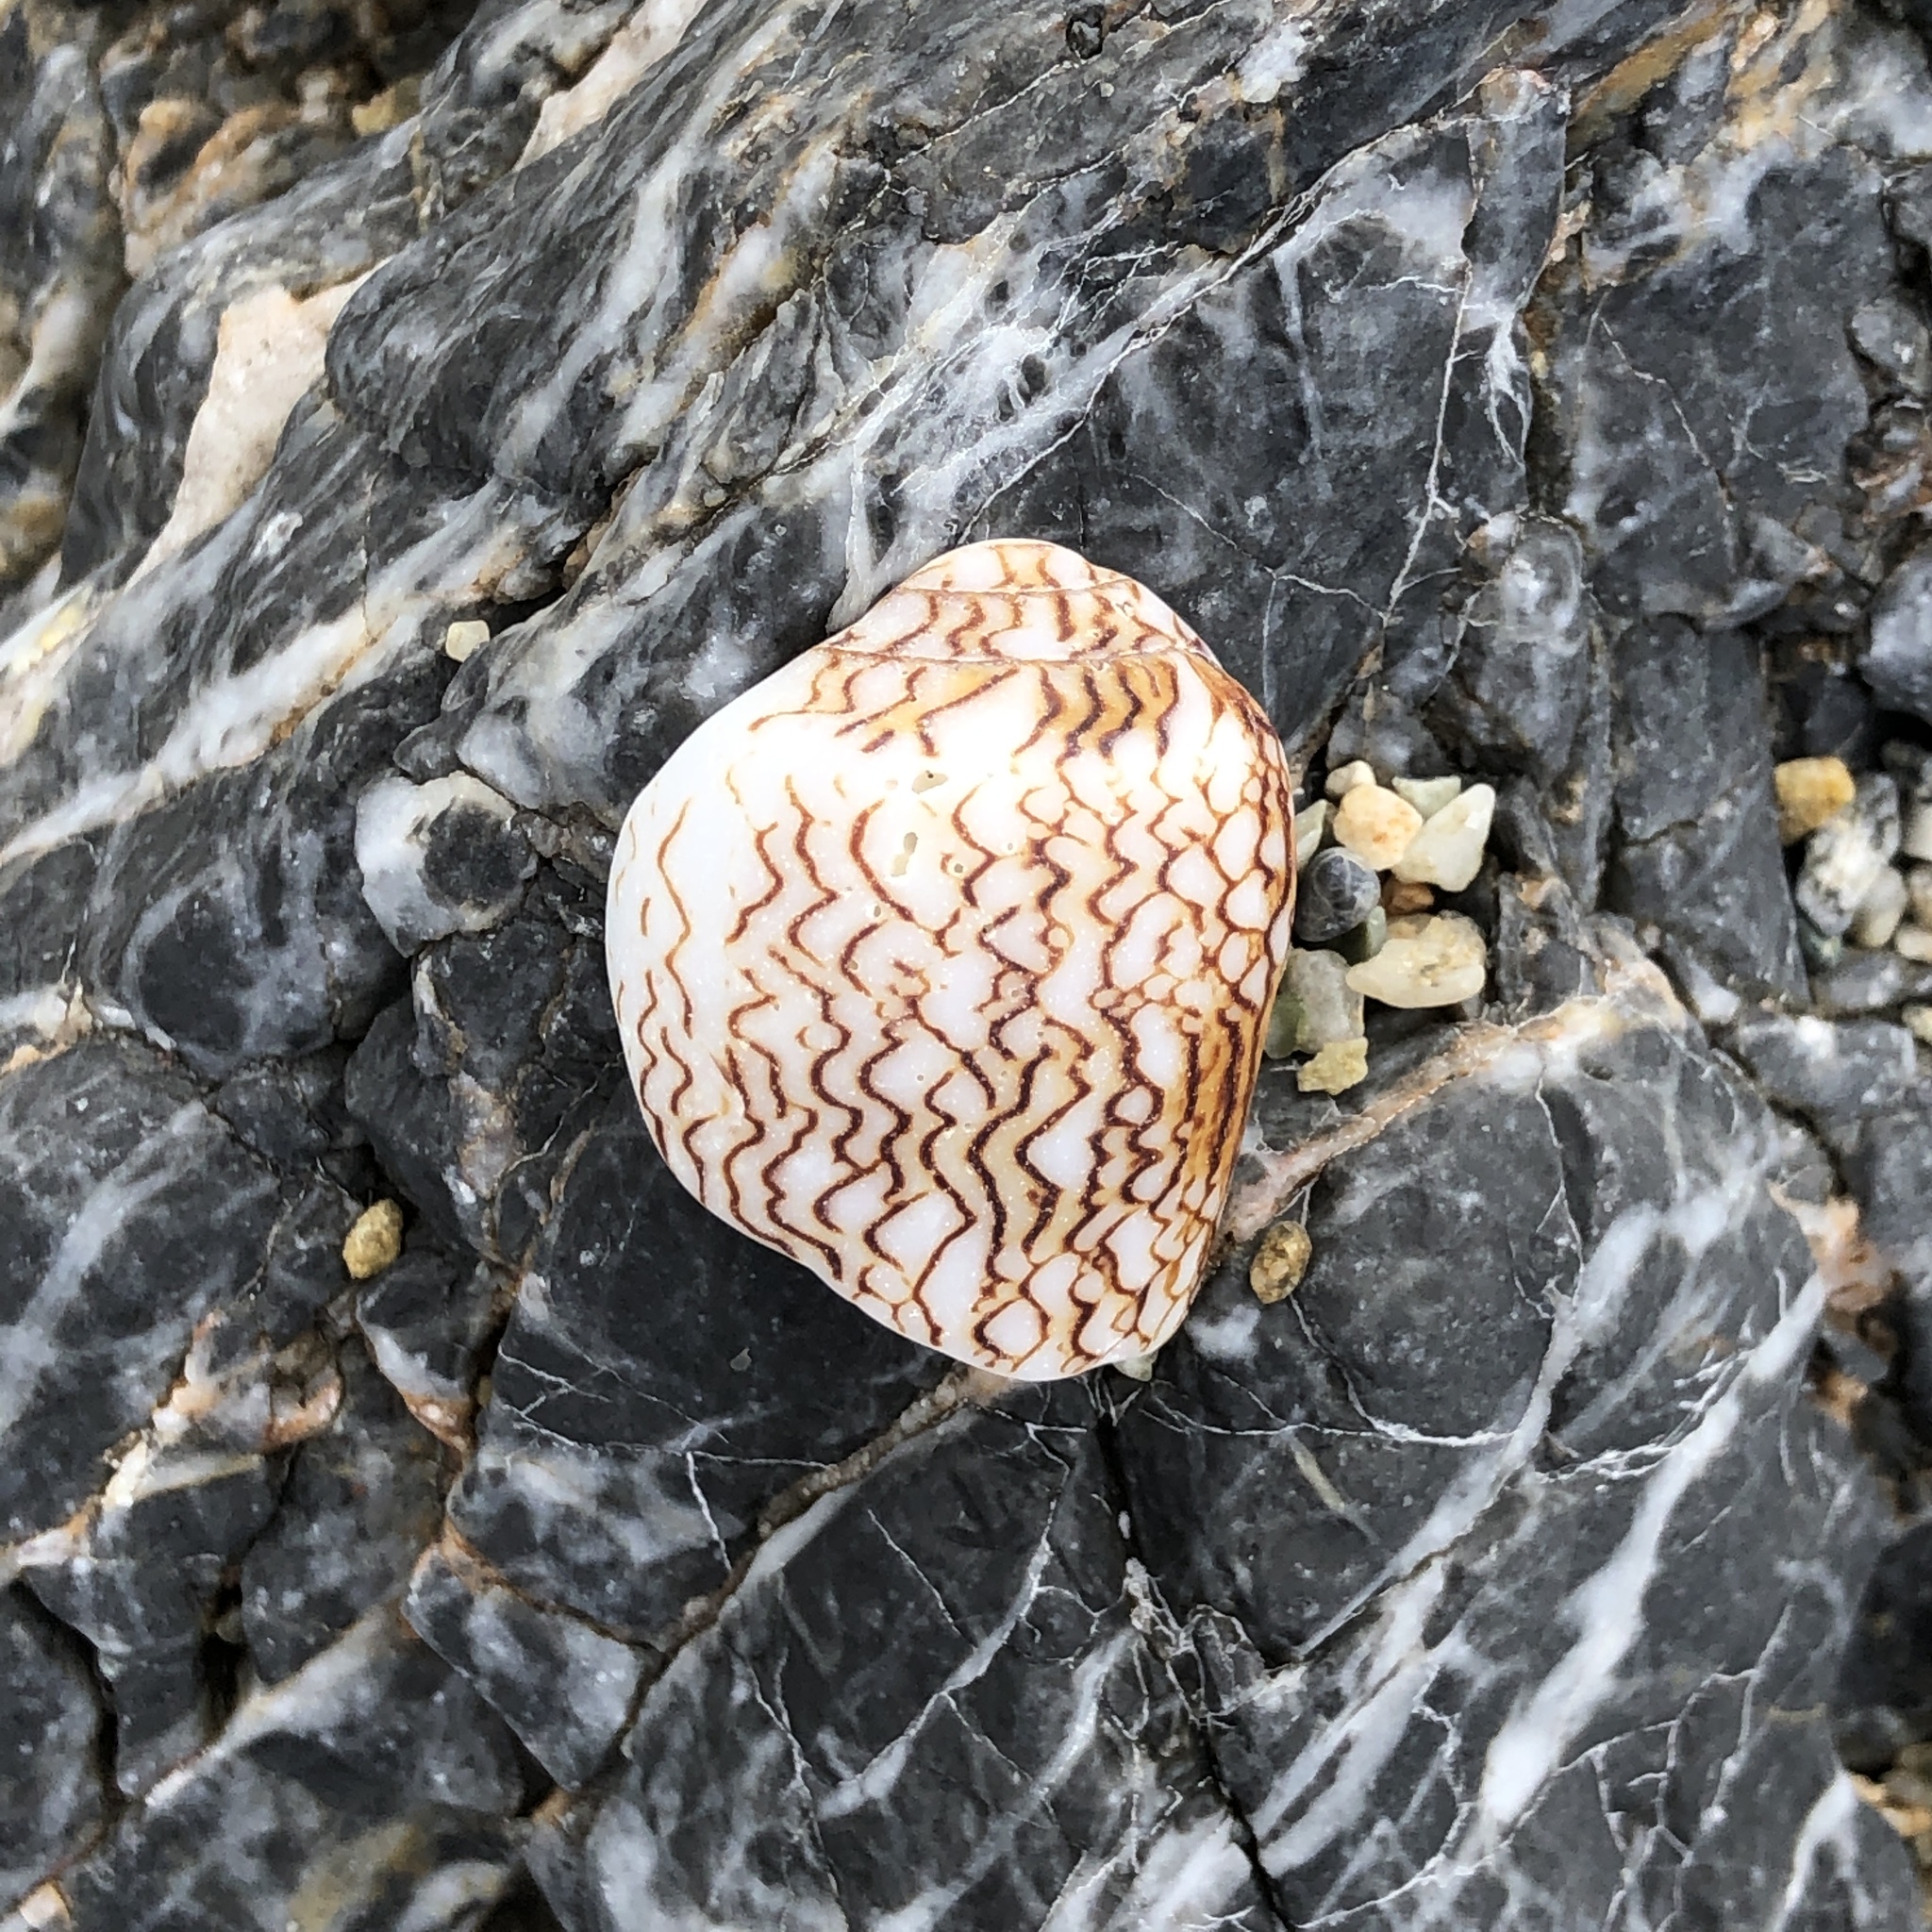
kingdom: Animalia
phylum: Mollusca
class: Gastropoda
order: Neogastropoda
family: Conidae
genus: Conus
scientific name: Conus textile
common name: Cloth-of-gold cone
